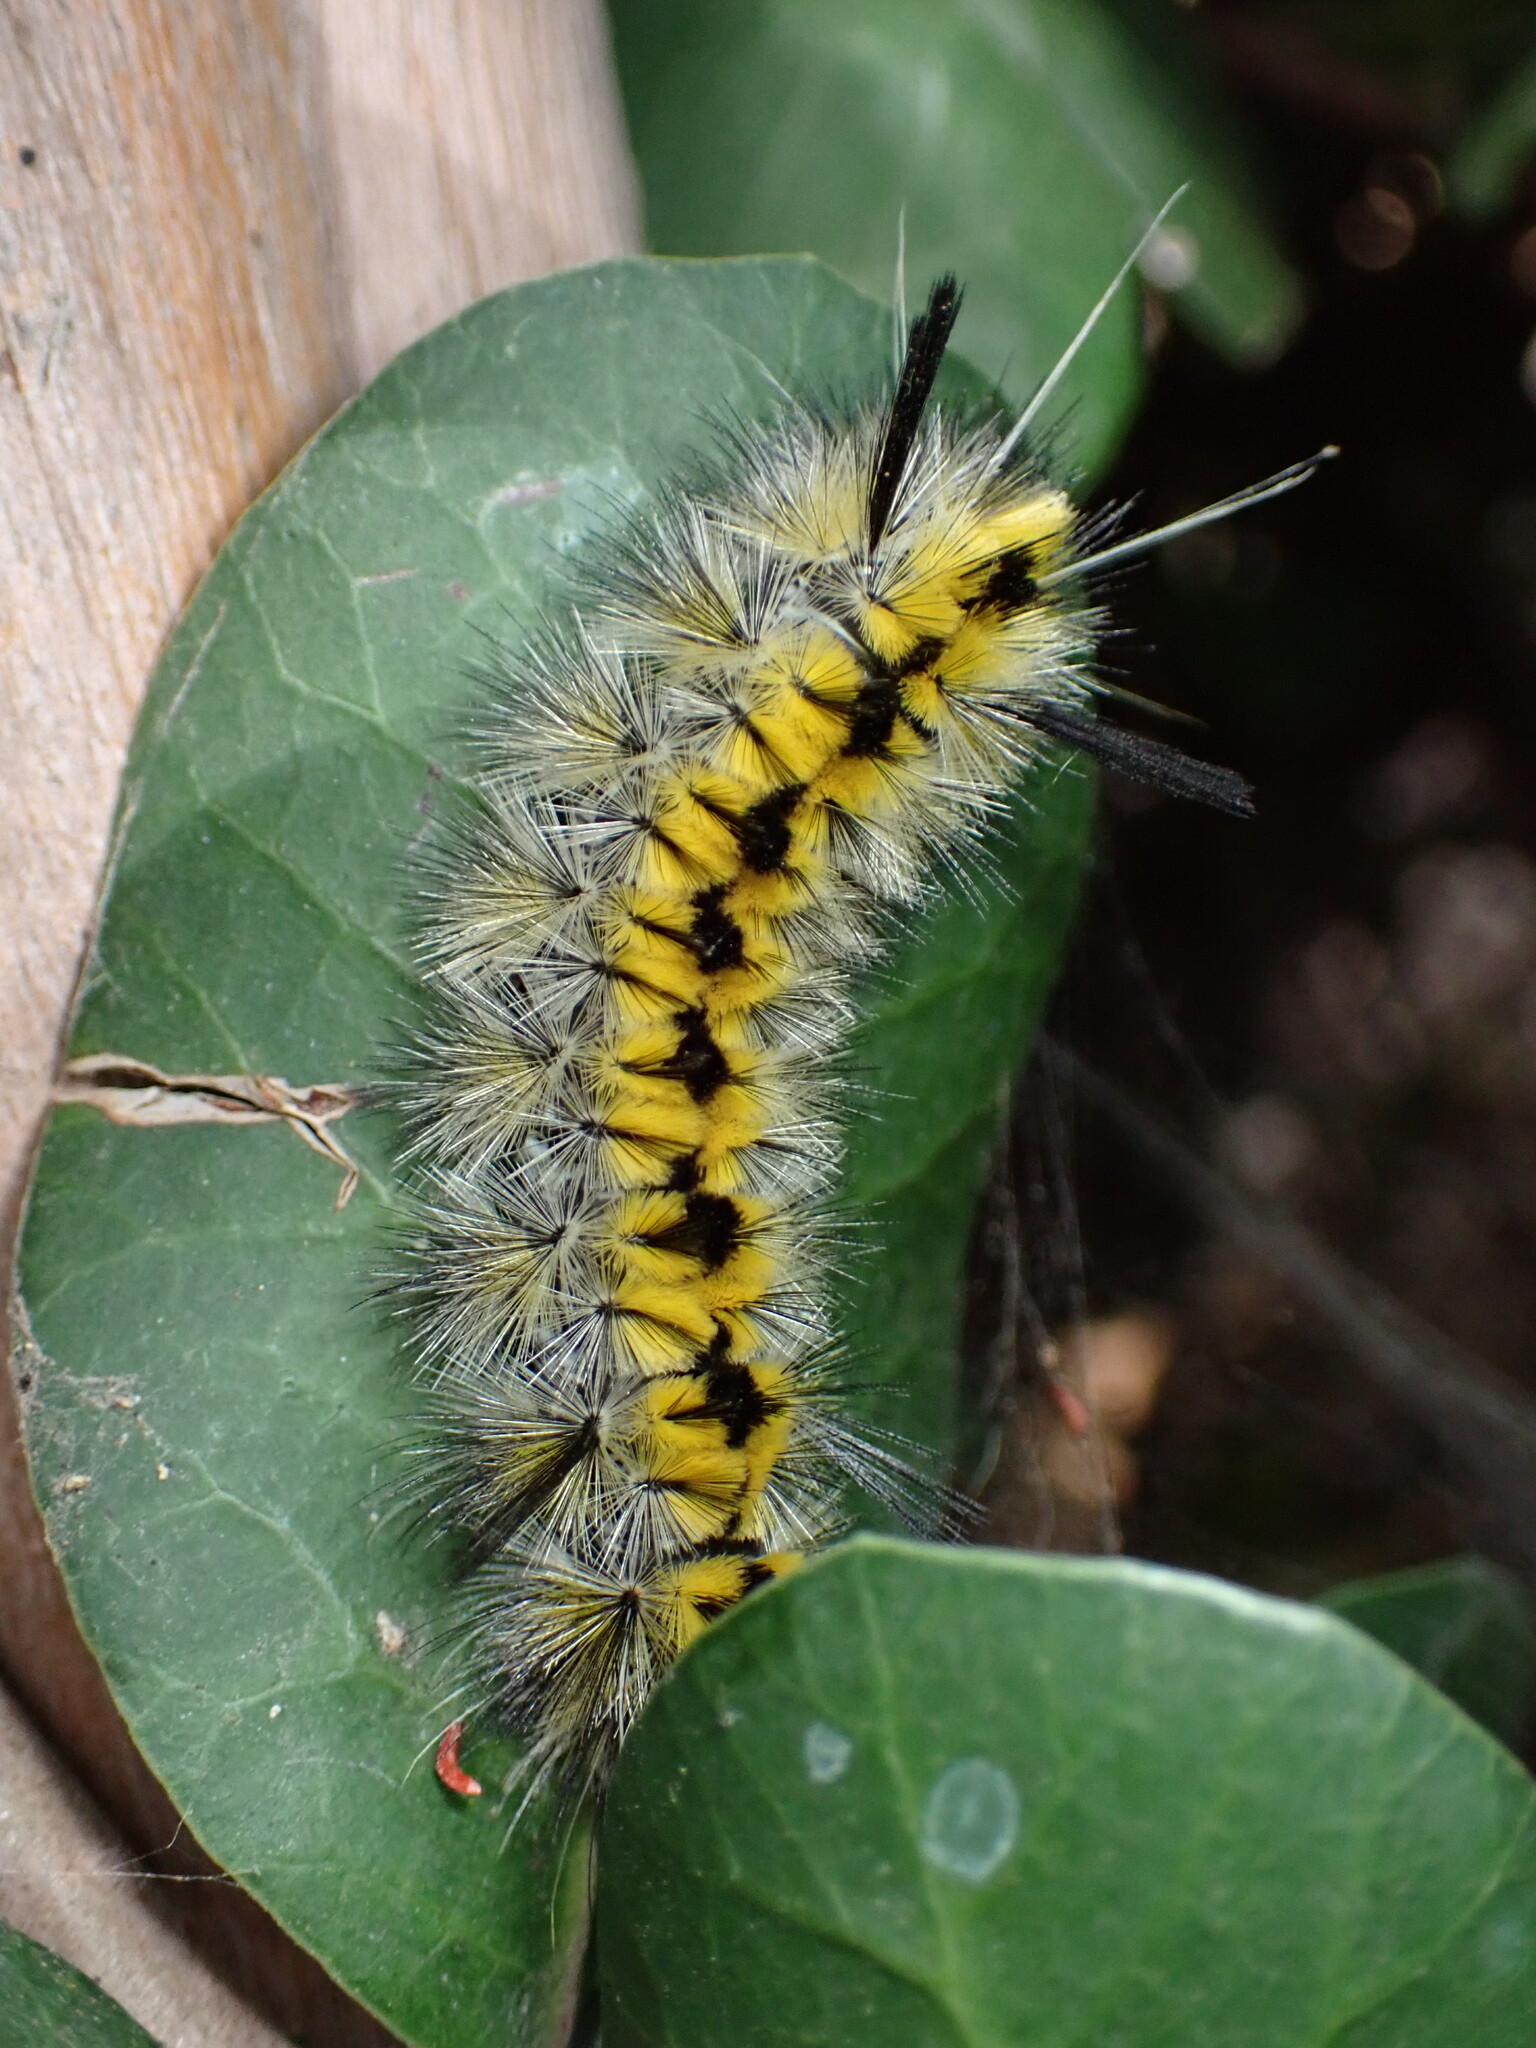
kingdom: Animalia
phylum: Arthropoda
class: Insecta
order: Lepidoptera
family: Erebidae
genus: Lophocampa
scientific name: Lophocampa indistincta
